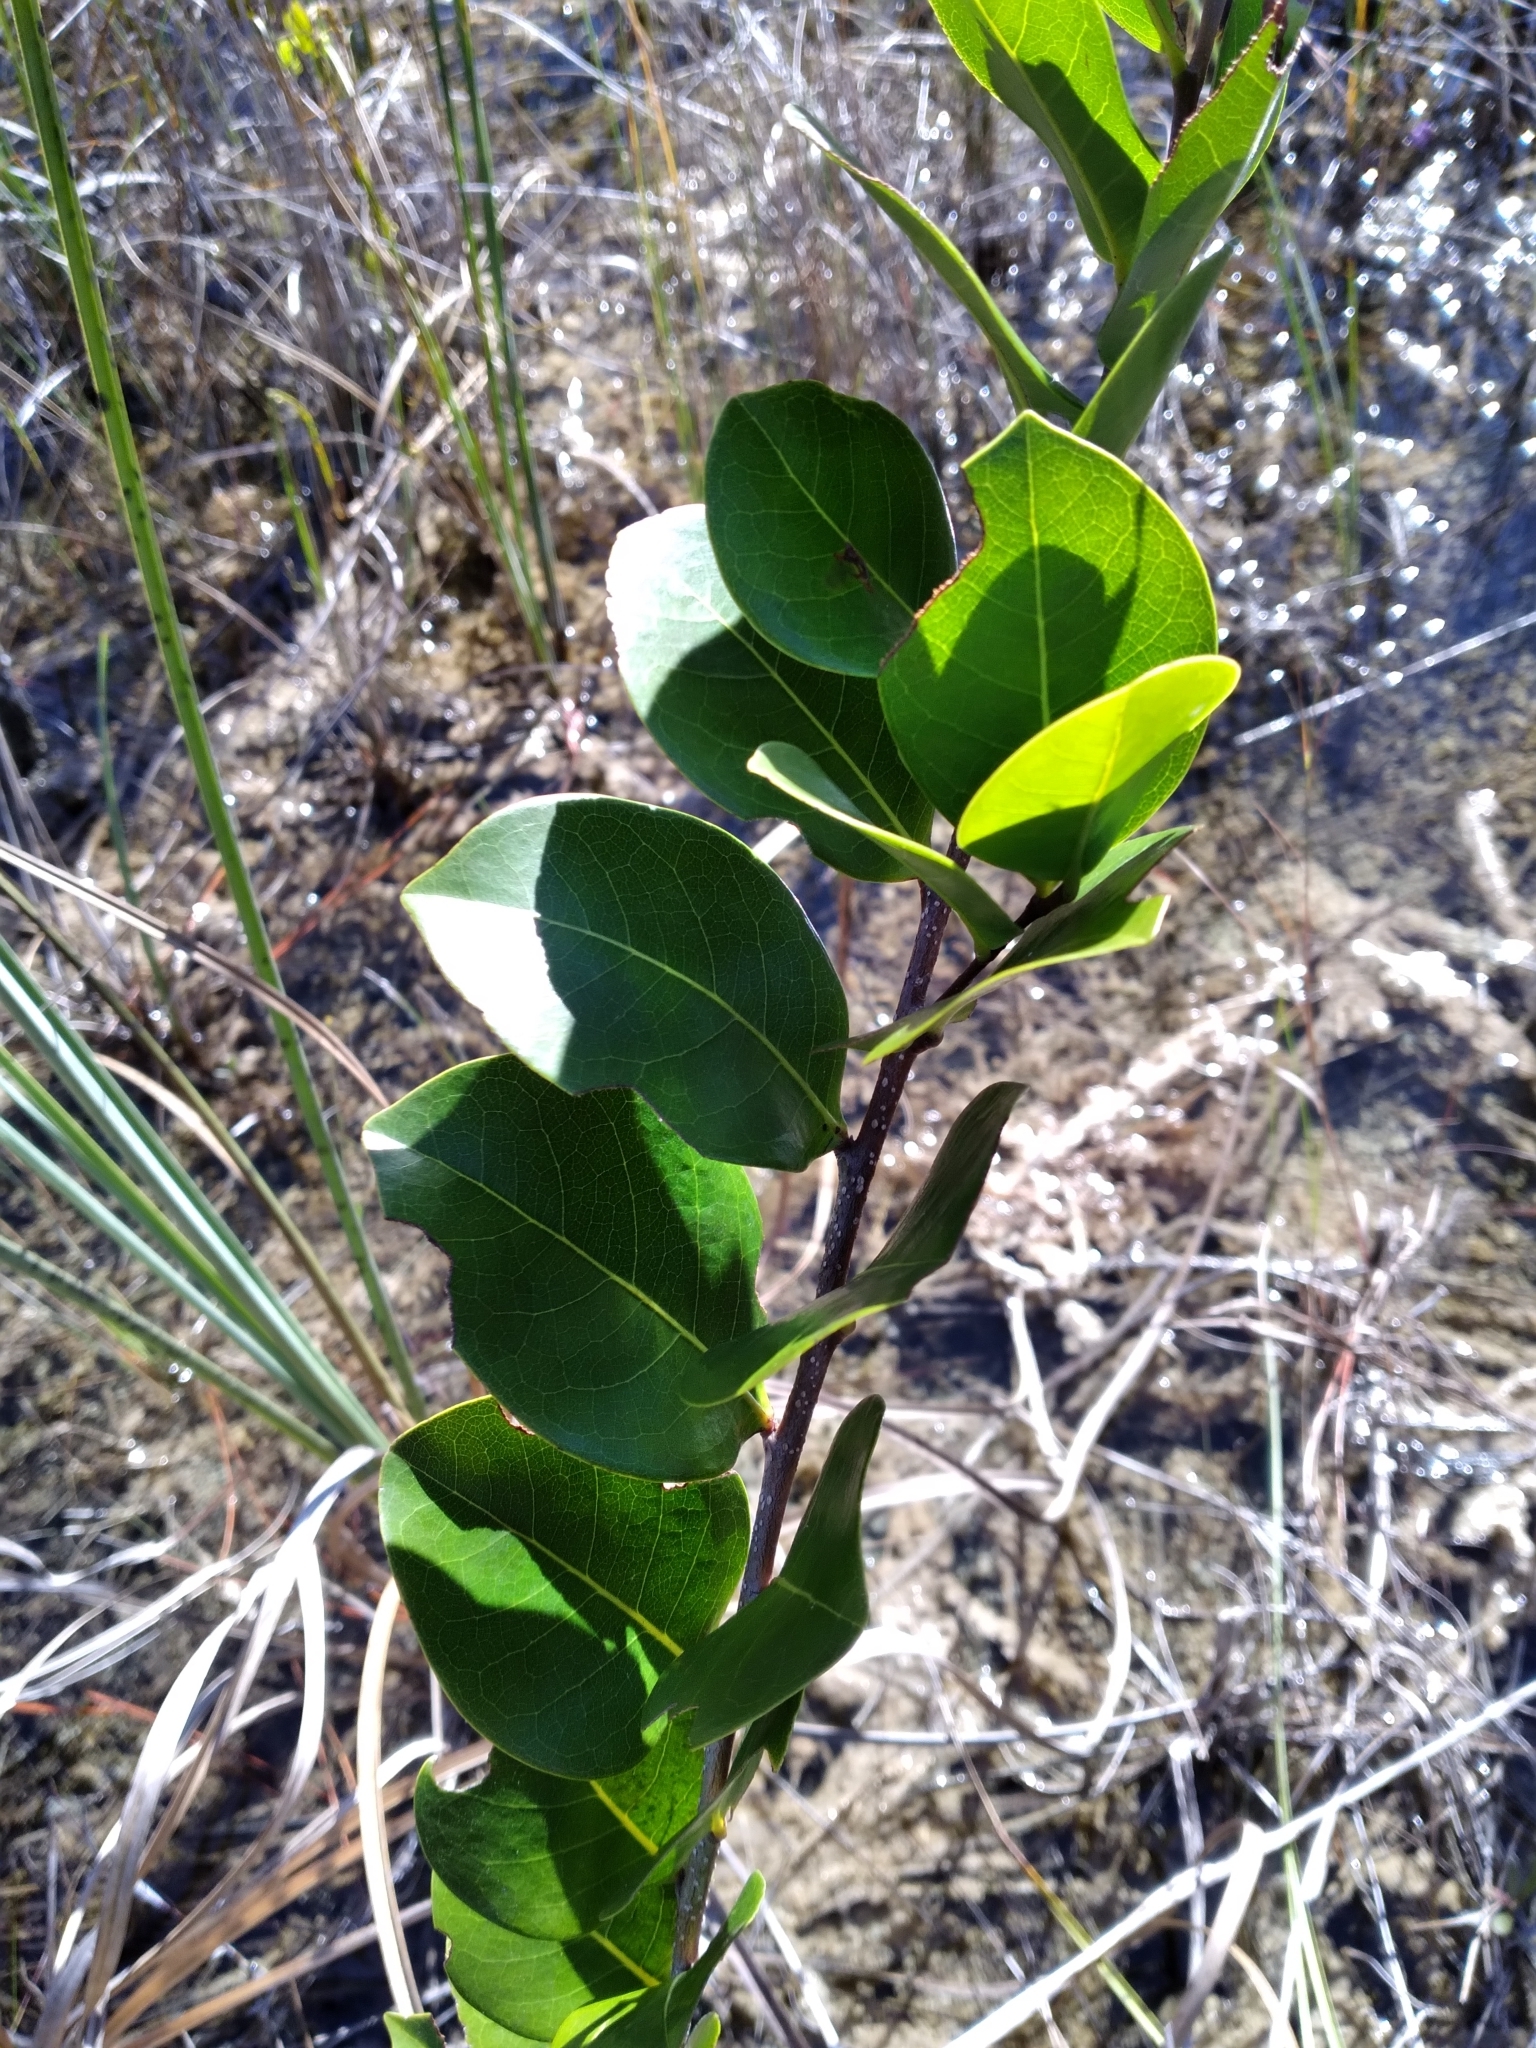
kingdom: Plantae
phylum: Tracheophyta
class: Magnoliopsida
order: Malpighiales
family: Chrysobalanaceae
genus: Chrysobalanus
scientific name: Chrysobalanus icaco
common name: Coco plum
